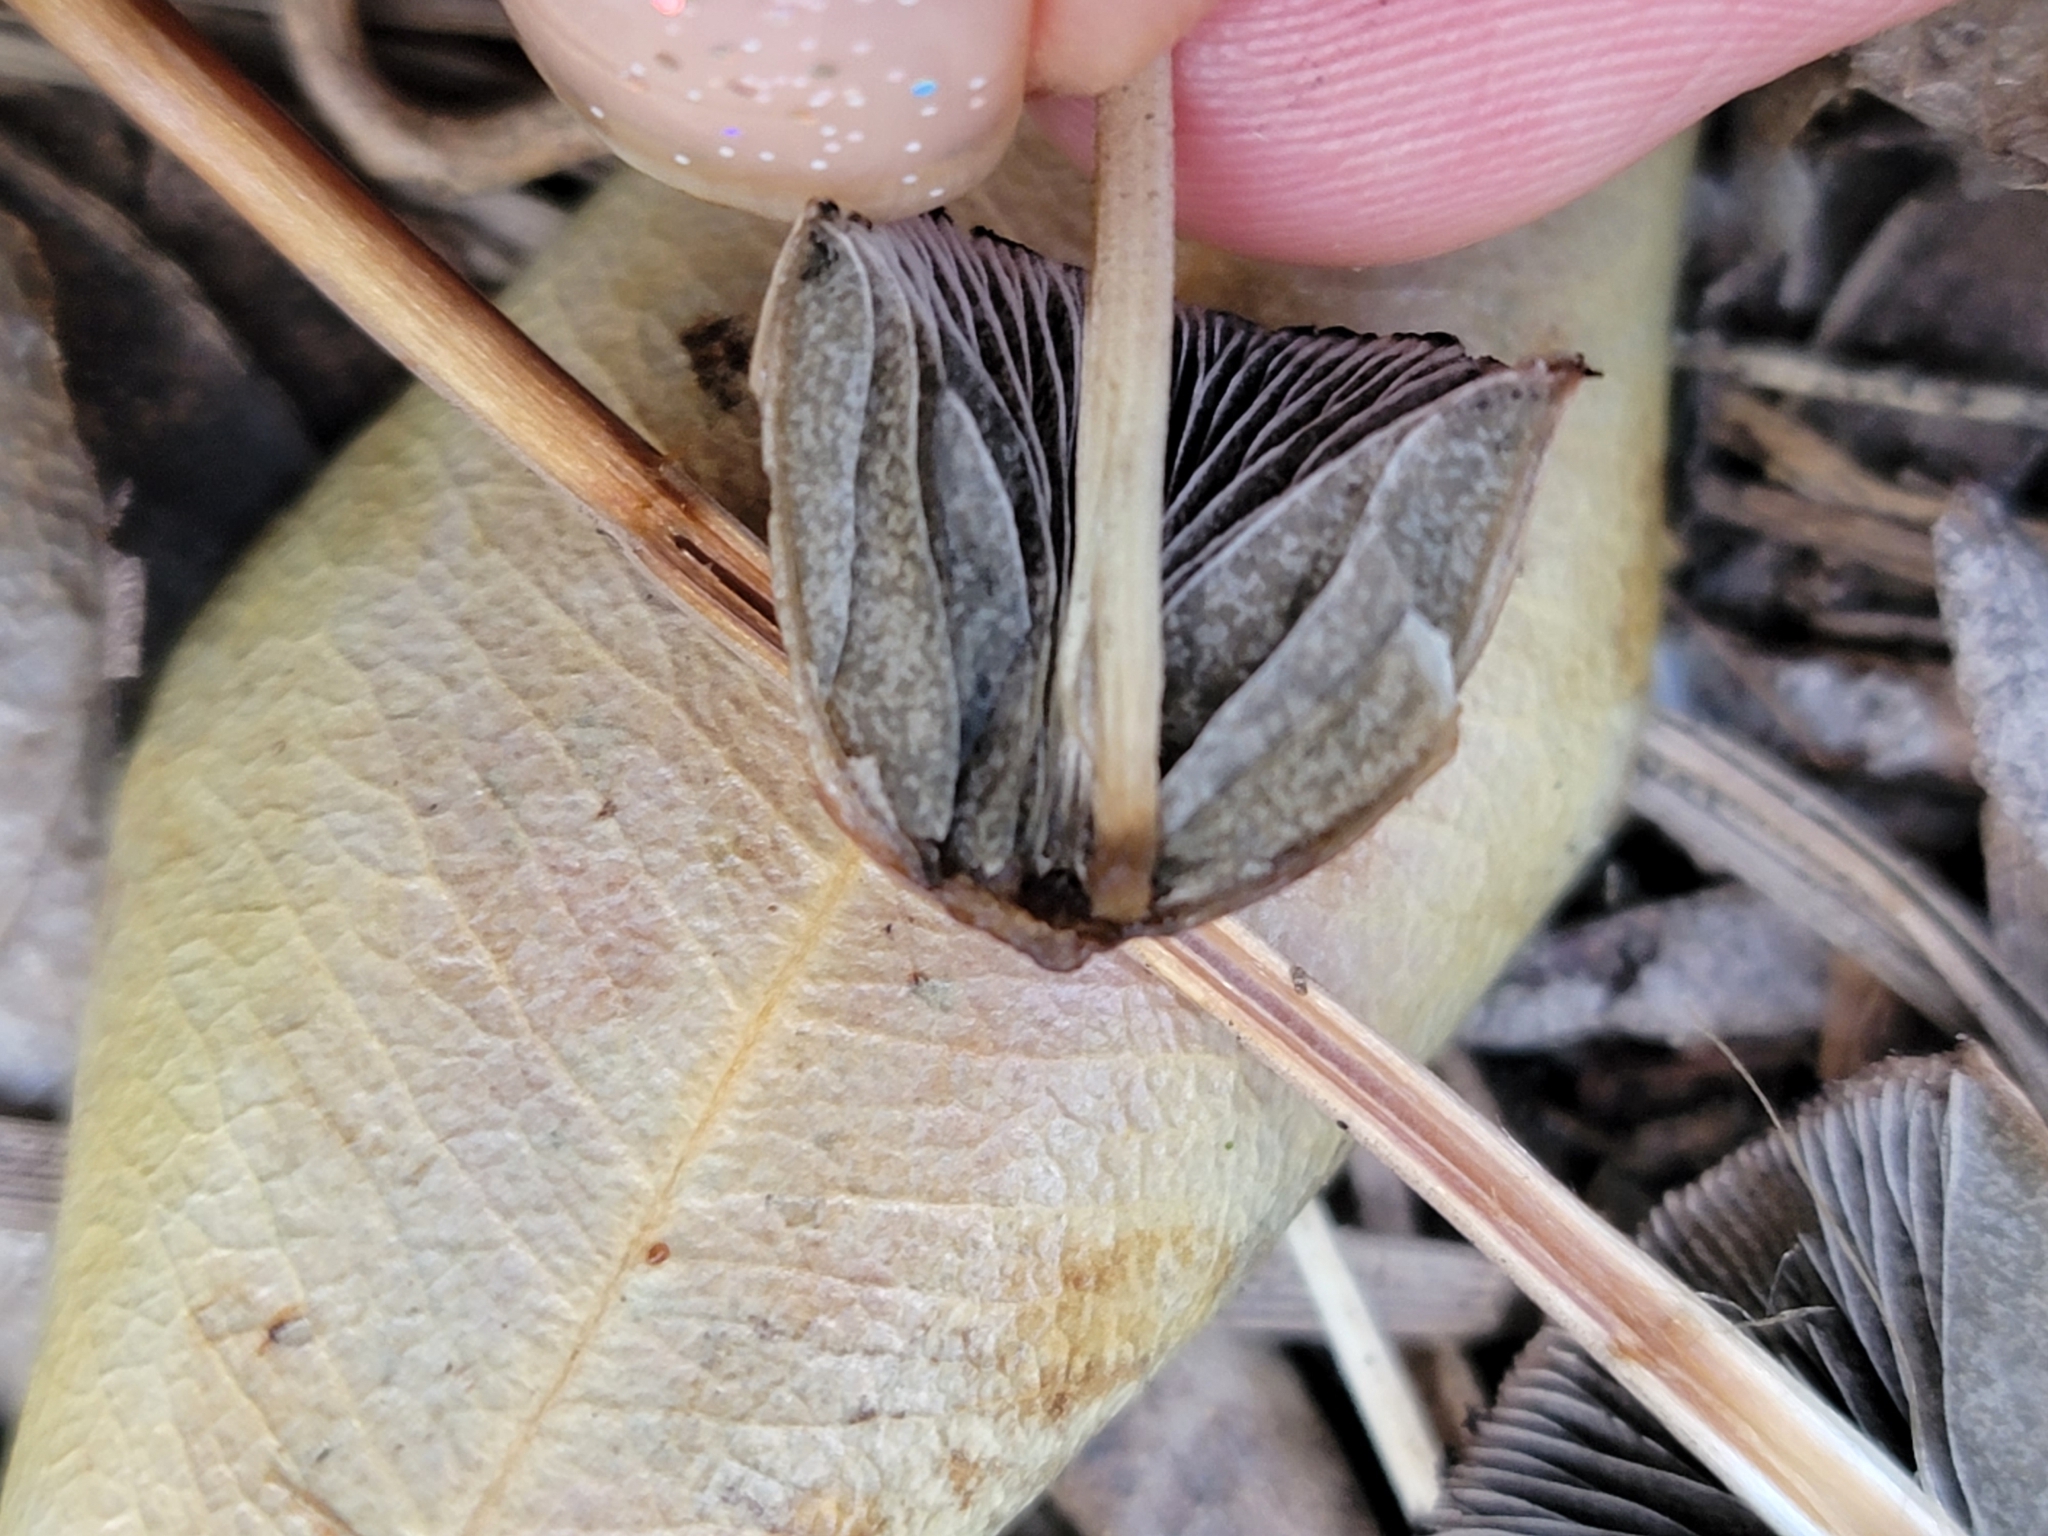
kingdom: Fungi
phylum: Basidiomycota
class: Agaricomycetes
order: Agaricales
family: Bolbitiaceae
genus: Panaeolus
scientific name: Panaeolus papilionaceus
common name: Petticoat mottlegill
